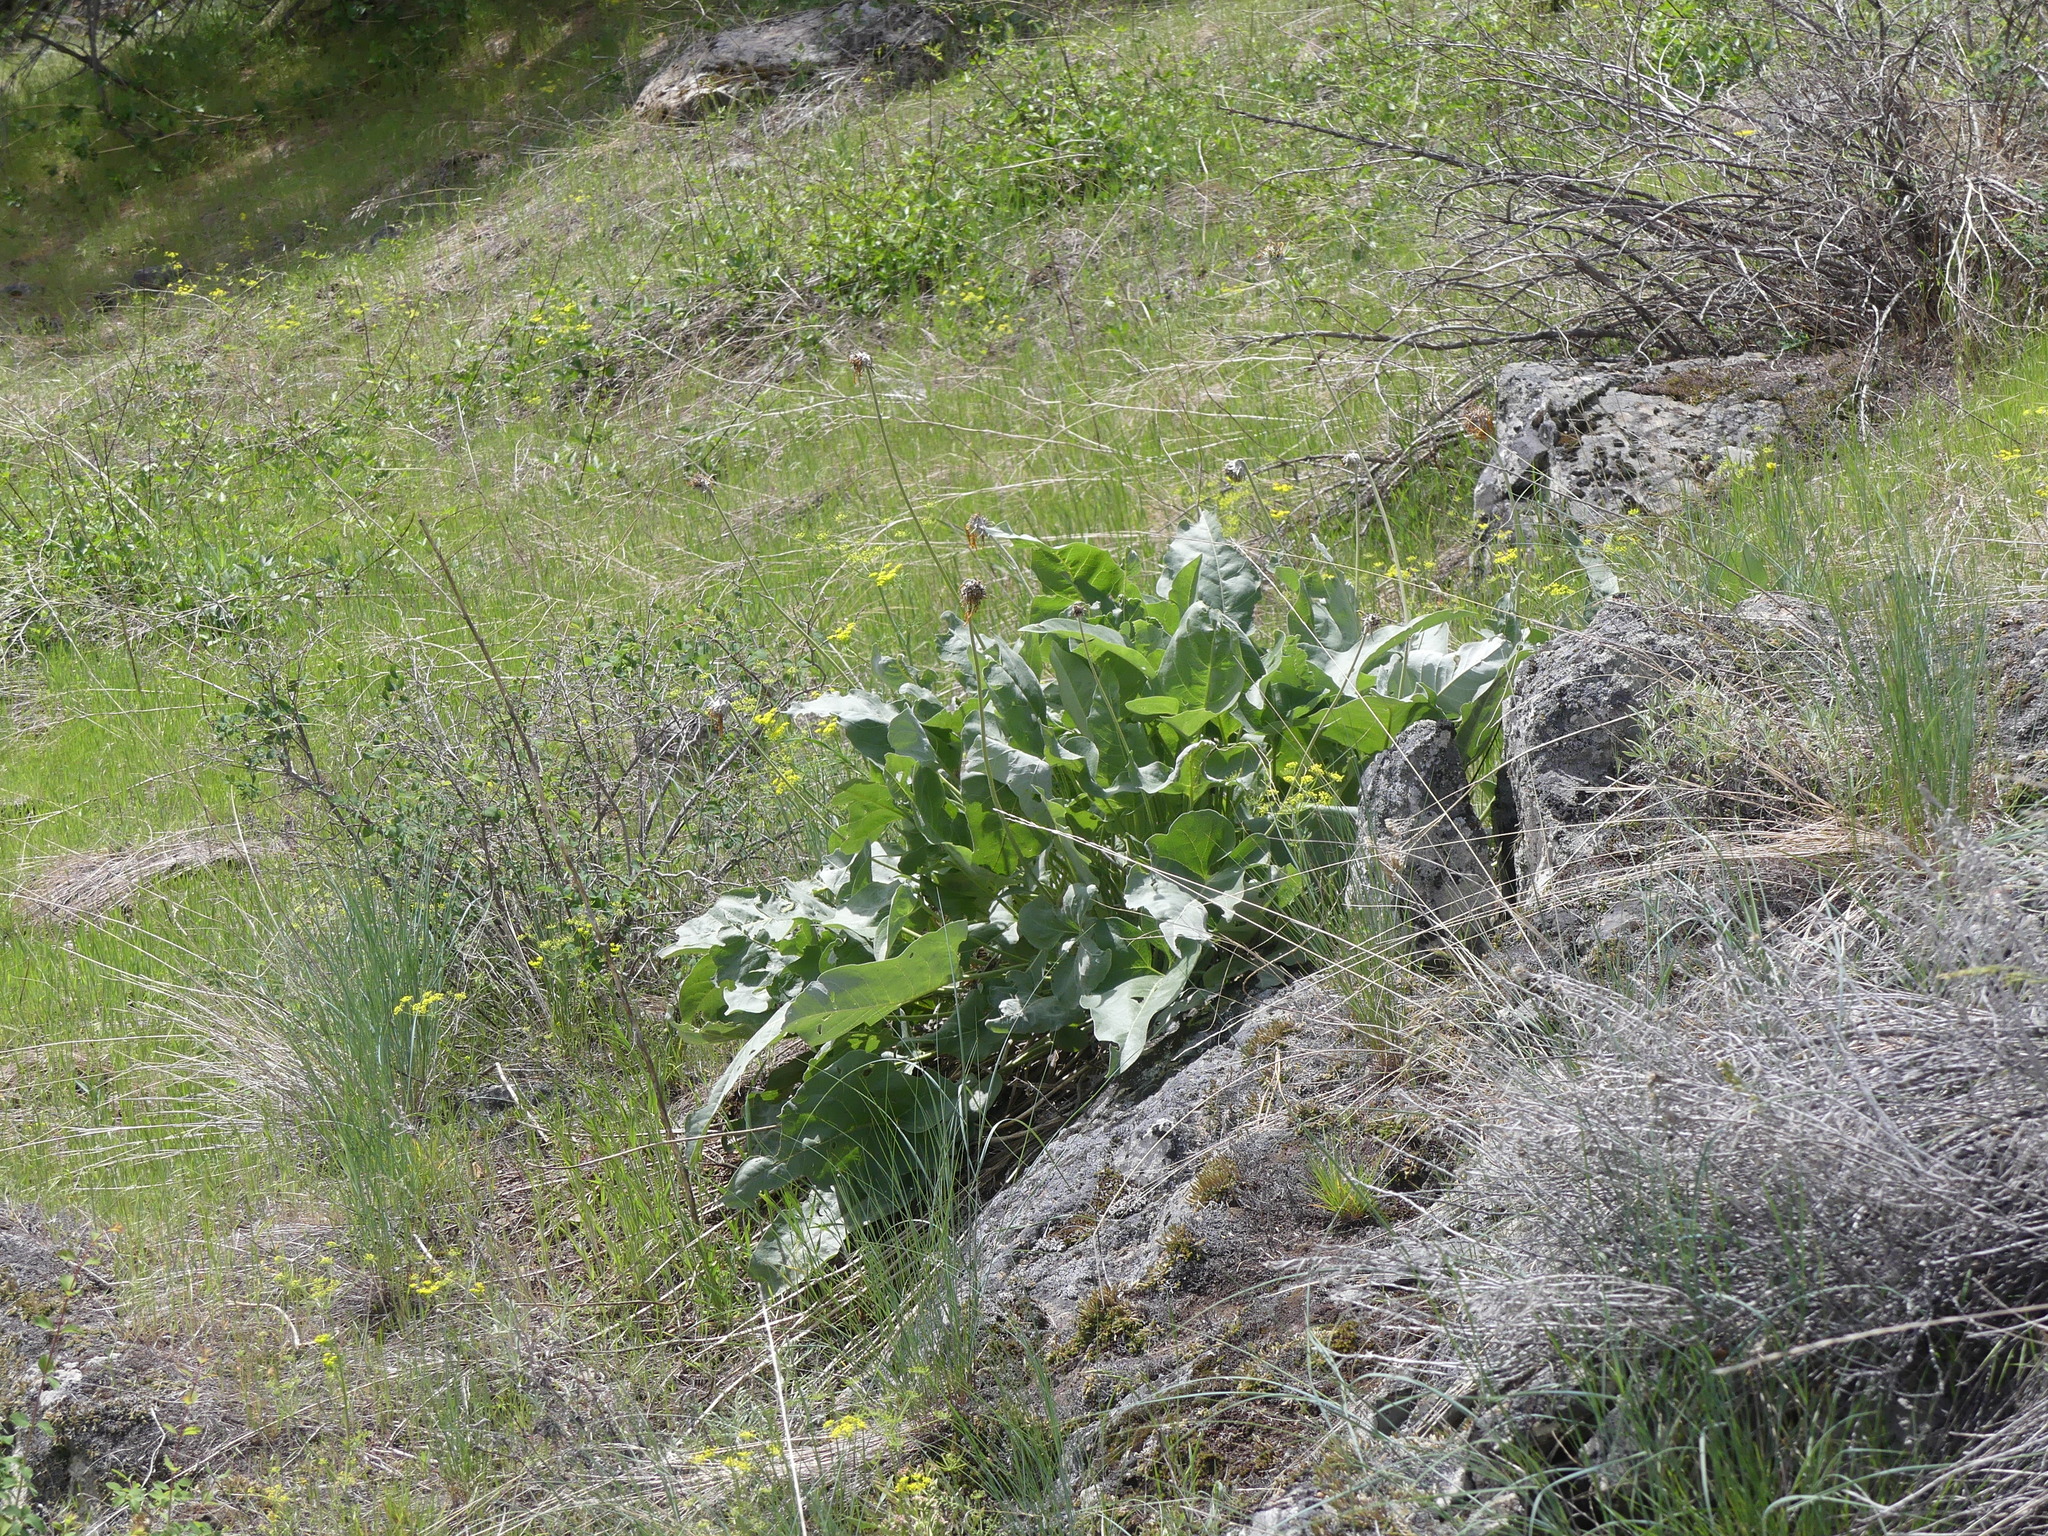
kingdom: Plantae
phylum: Tracheophyta
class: Magnoliopsida
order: Asterales
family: Asteraceae
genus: Wyethia
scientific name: Wyethia sagittata
